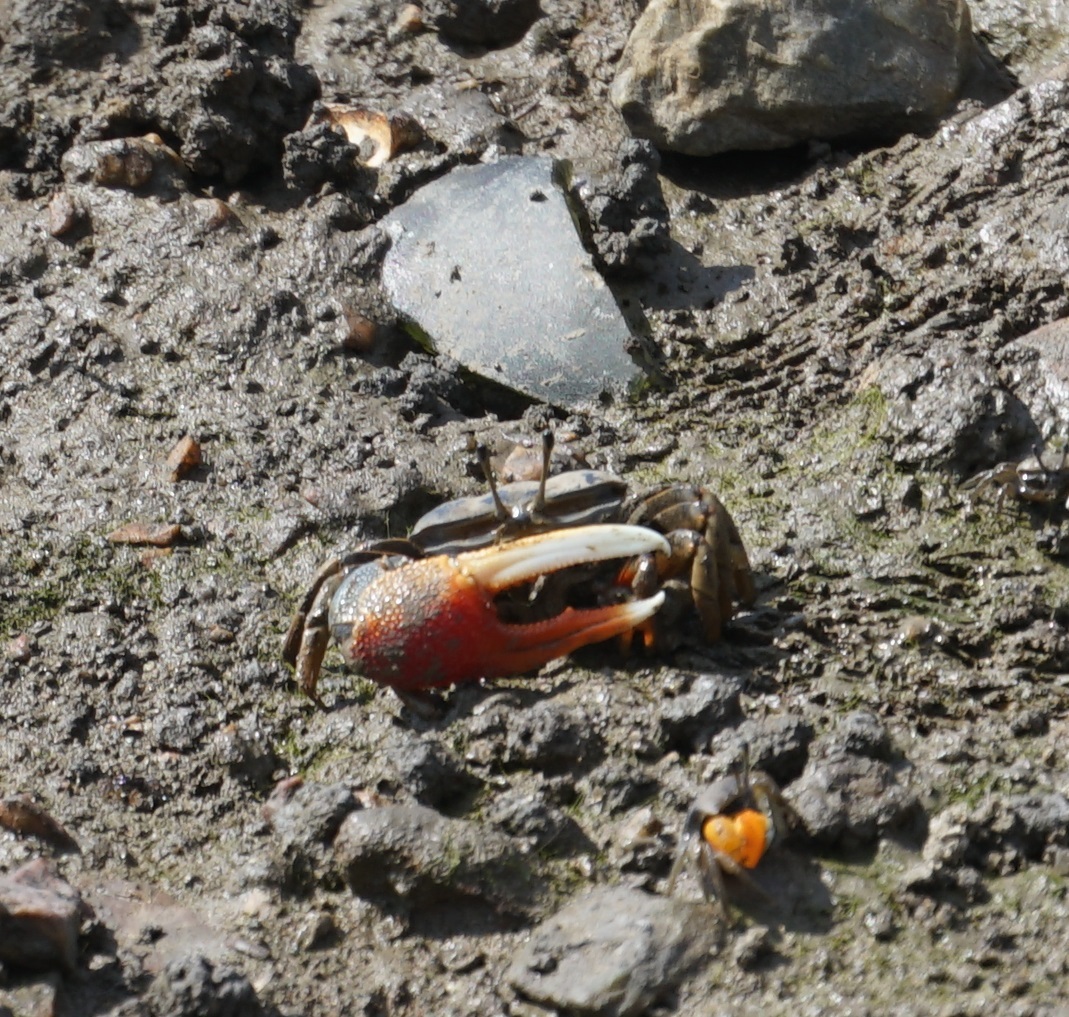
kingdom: Animalia
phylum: Arthropoda
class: Malacostraca
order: Decapoda
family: Ocypodidae
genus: Tubuca
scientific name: Tubuca dussumieri
